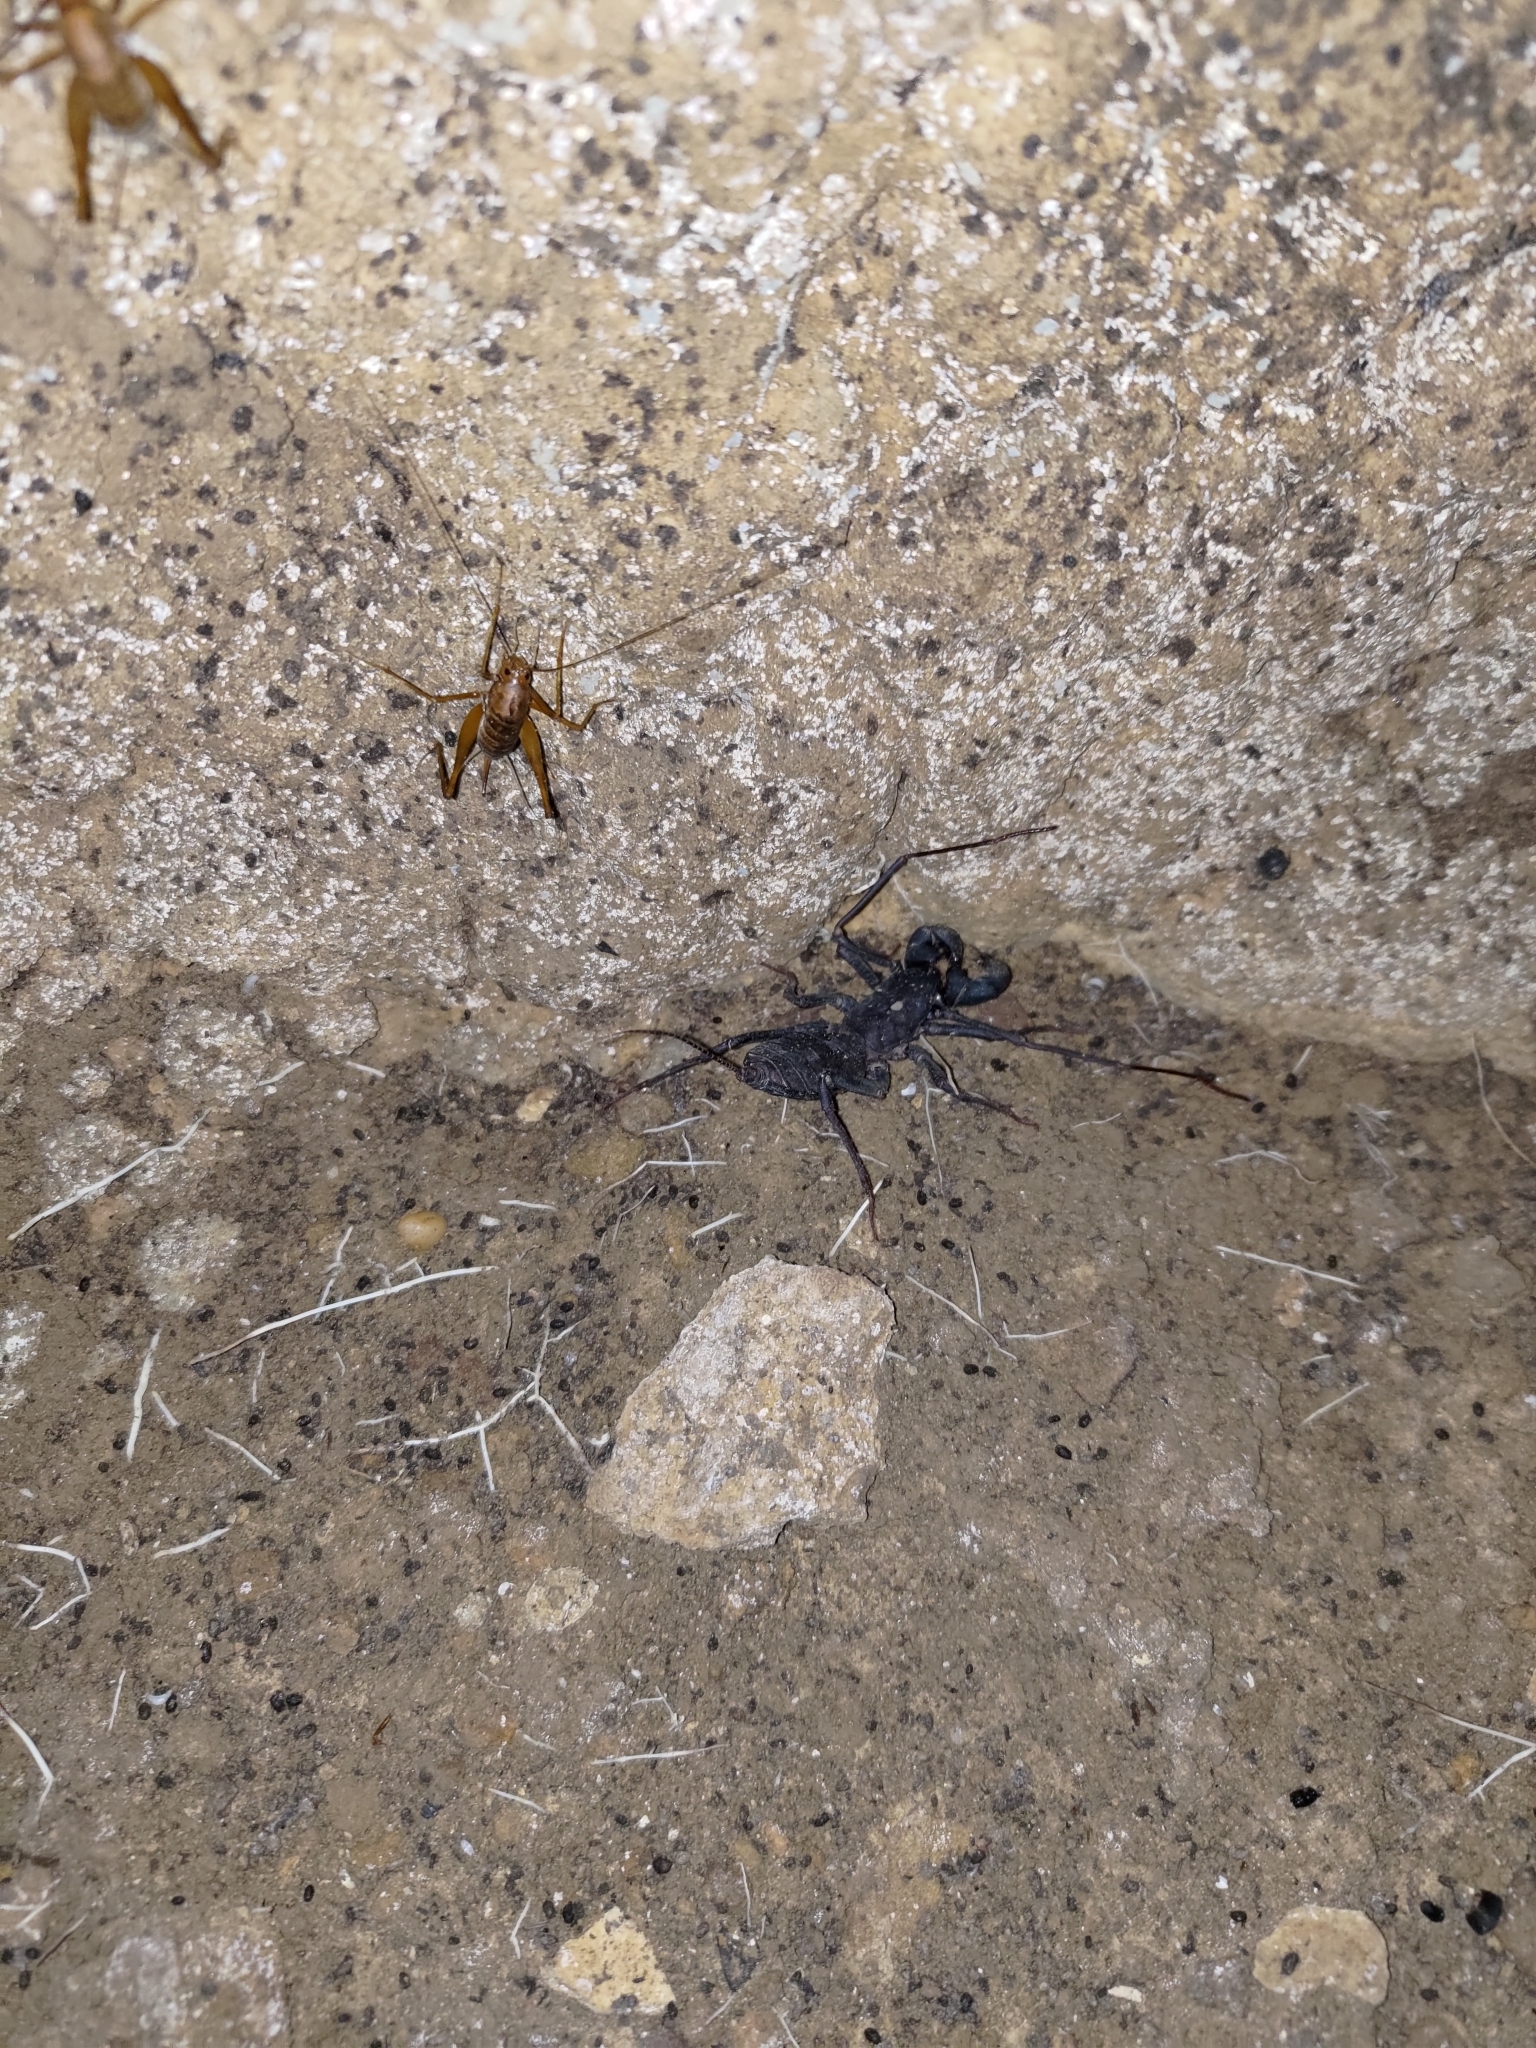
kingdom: Animalia
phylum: Arthropoda
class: Arachnida
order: Uropygi
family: Thelyphonidae
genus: Typopeltis
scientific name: Typopeltis crucifer
